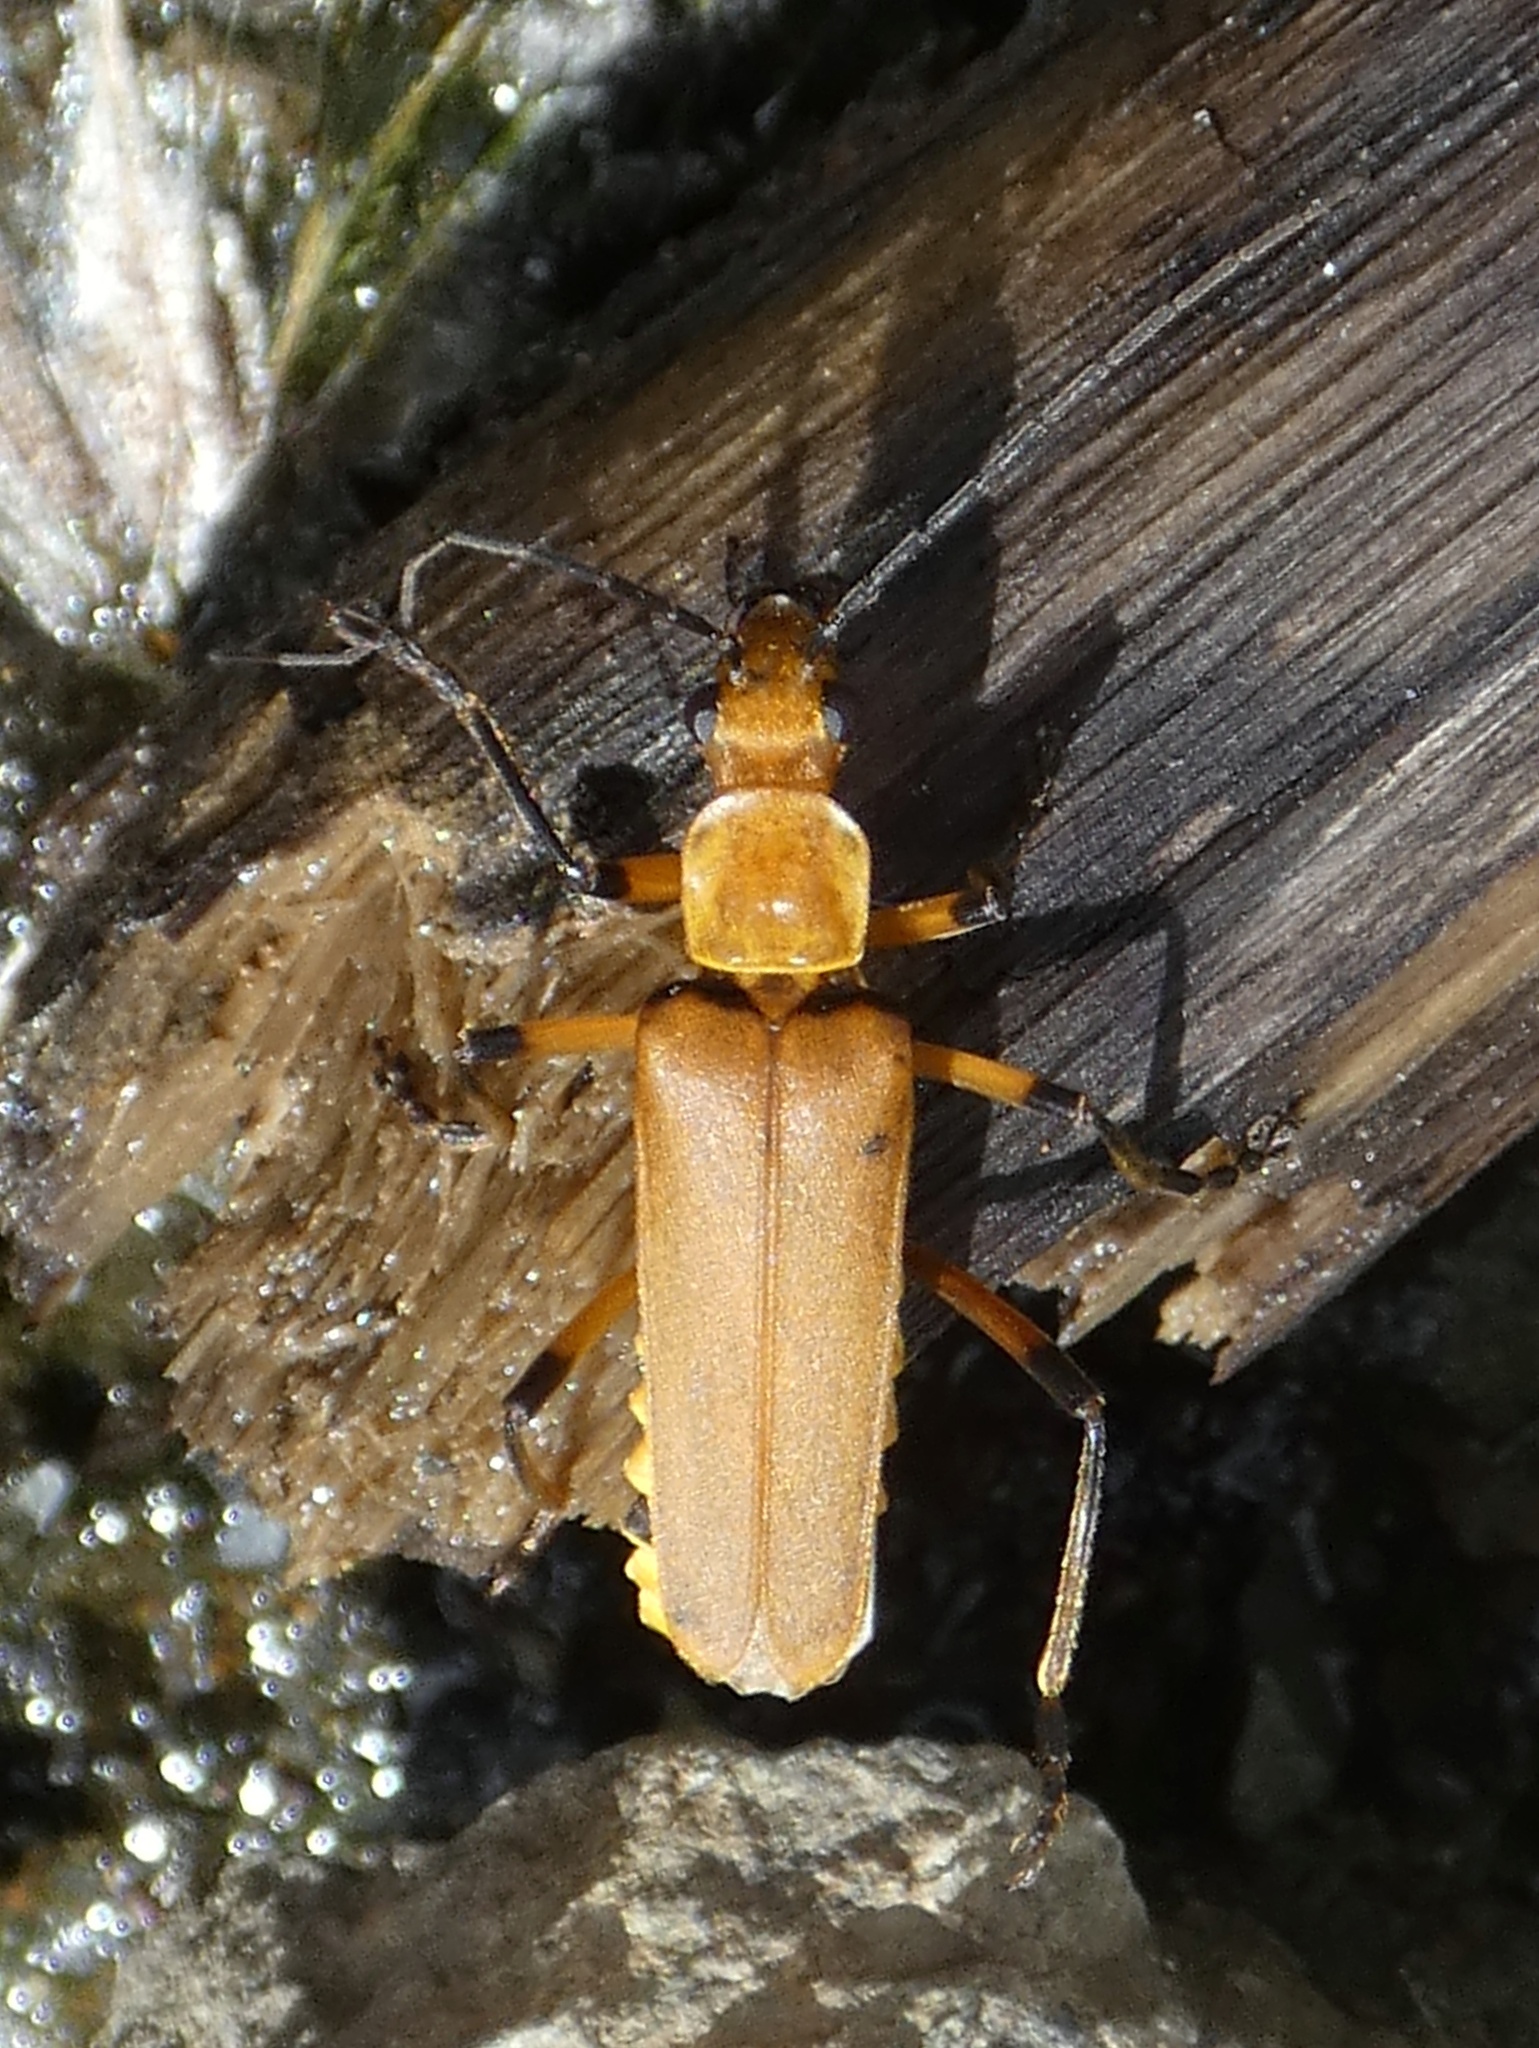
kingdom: Animalia
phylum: Arthropoda
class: Insecta
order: Coleoptera
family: Cantharidae
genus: Chauliognathus
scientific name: Chauliognathus
